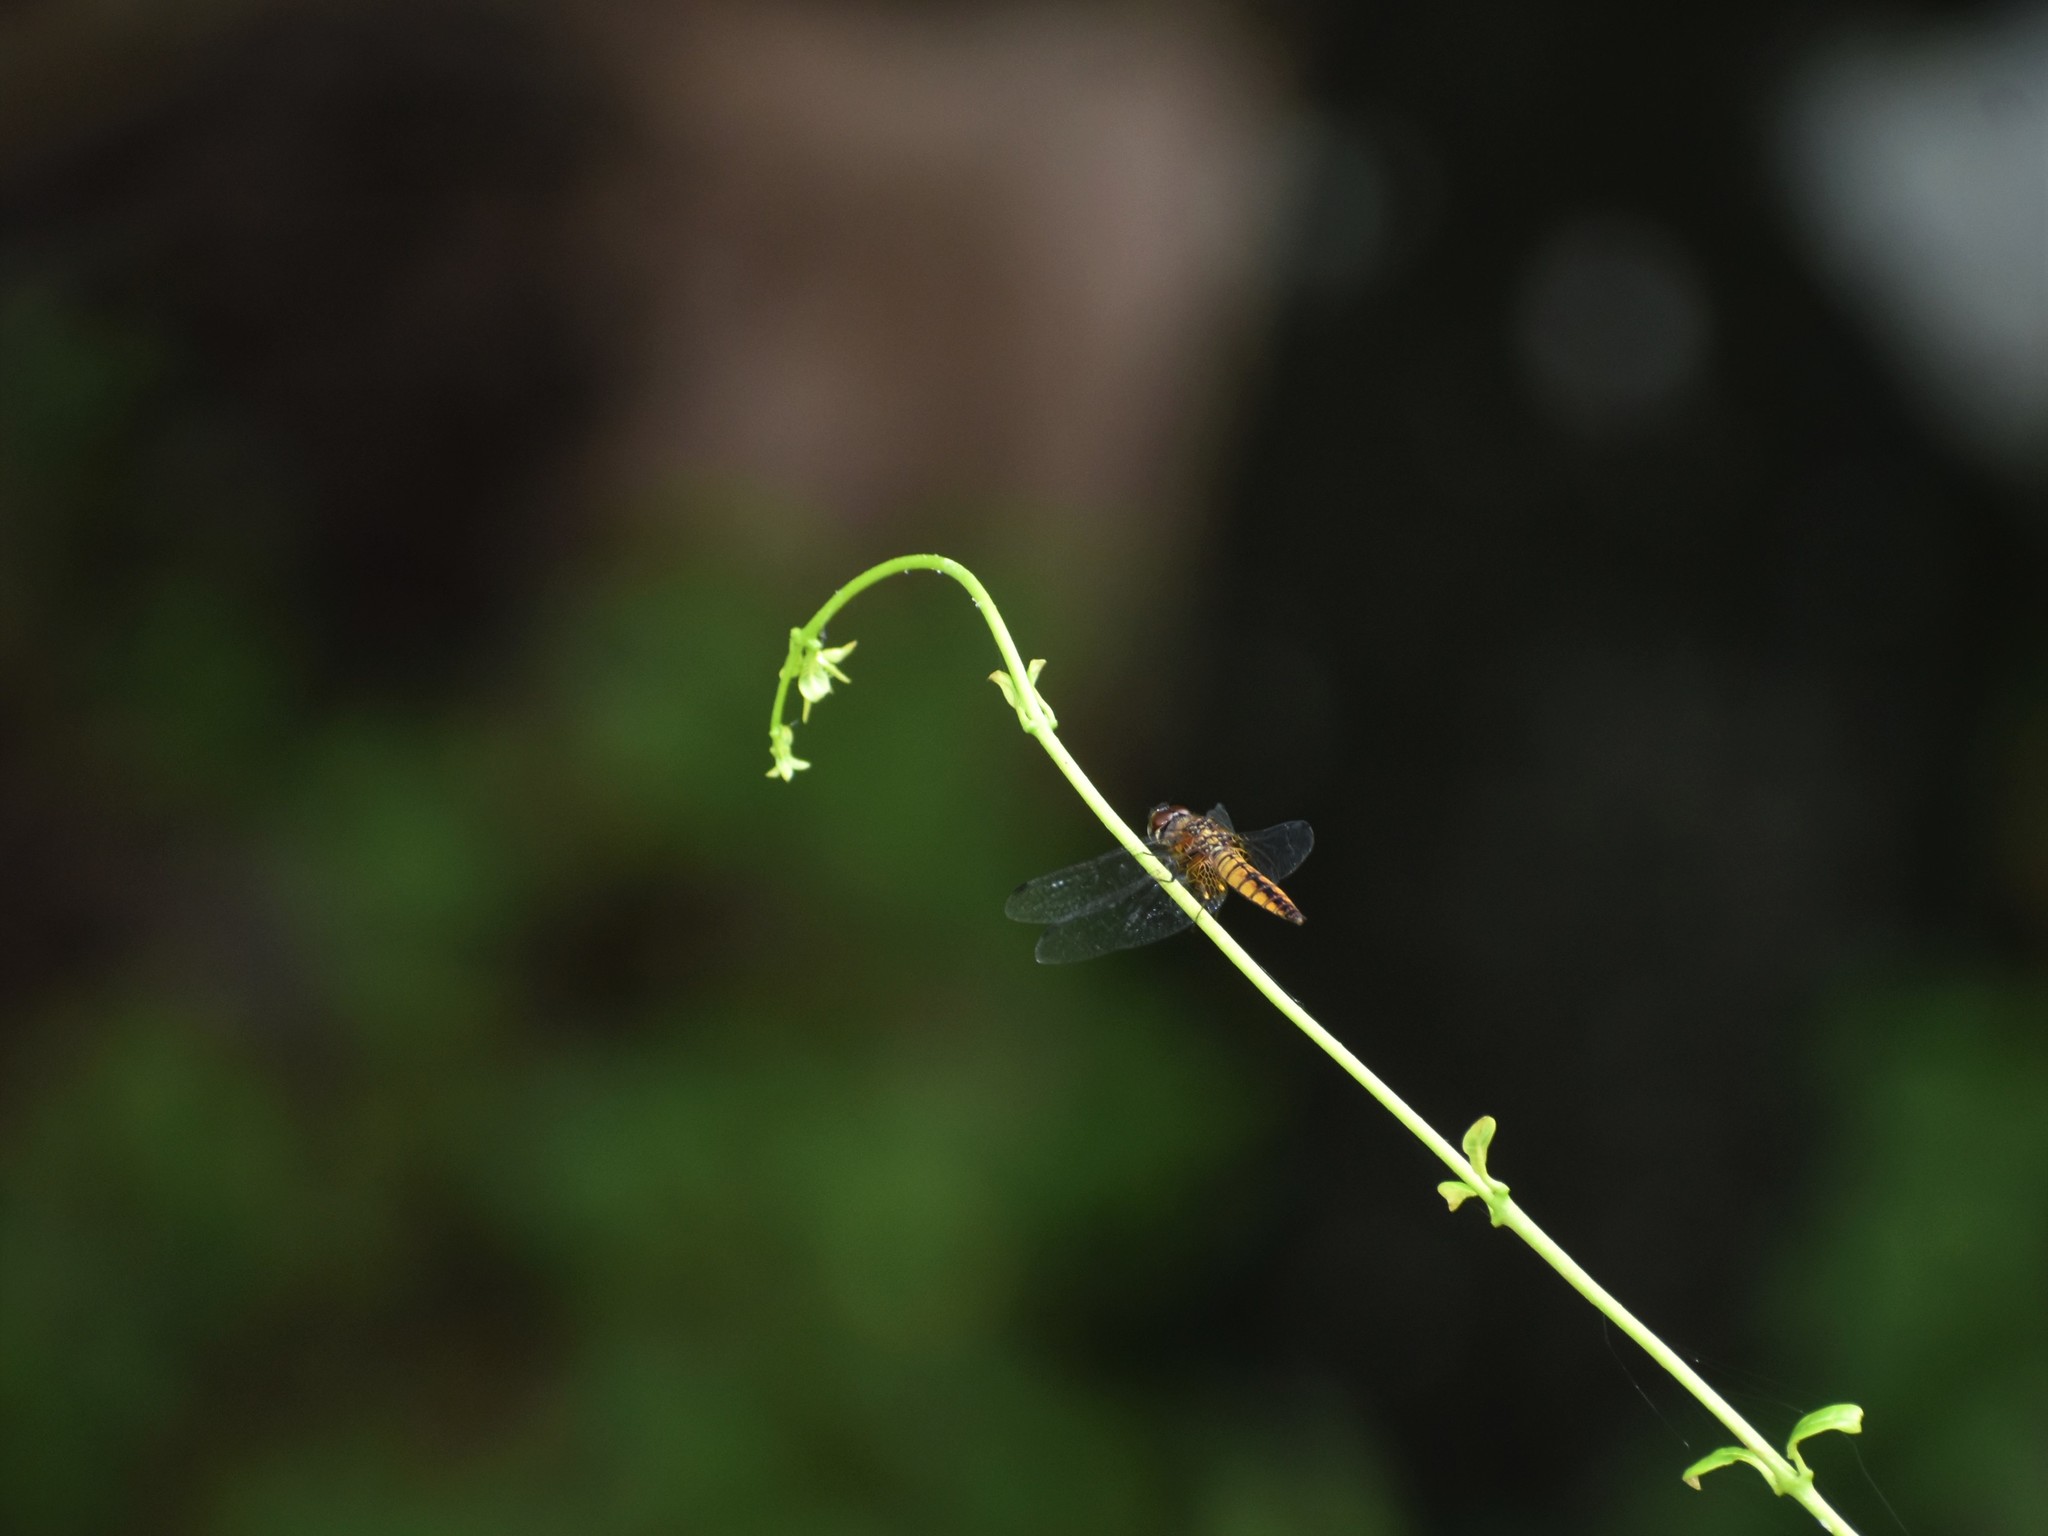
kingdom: Animalia
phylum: Arthropoda
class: Insecta
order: Odonata
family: Libellulidae
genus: Aethriamanta
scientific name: Aethriamanta brevipennis
